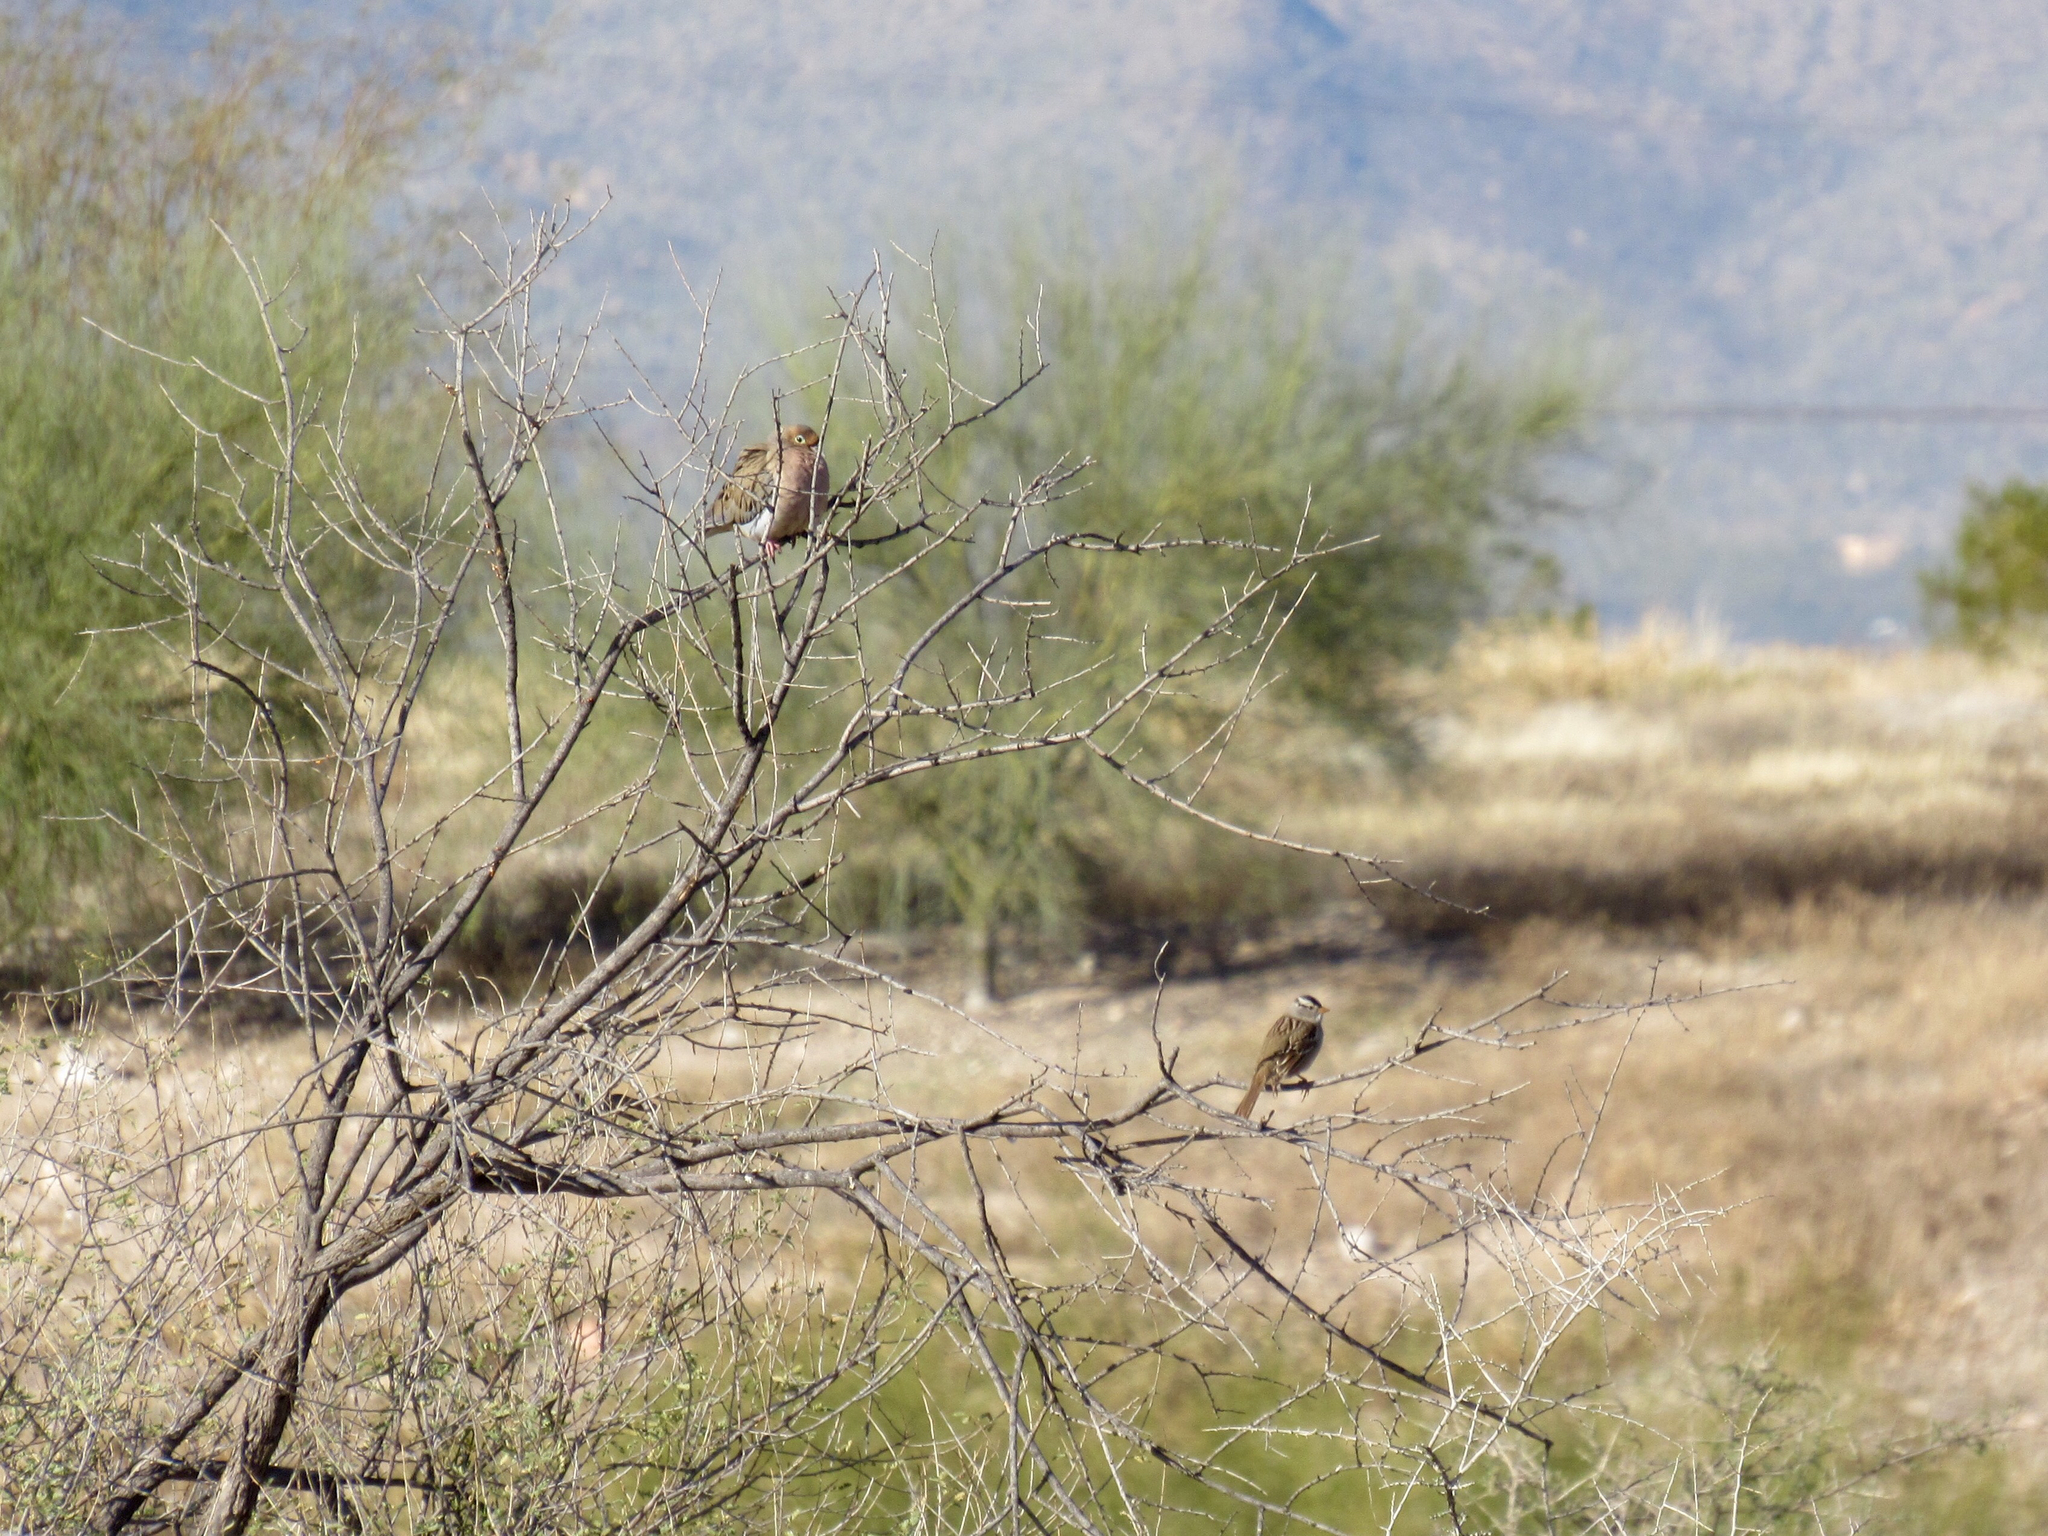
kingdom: Animalia
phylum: Chordata
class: Aves
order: Columbiformes
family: Columbidae
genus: Zenaida
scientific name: Zenaida macroura
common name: Mourning dove
